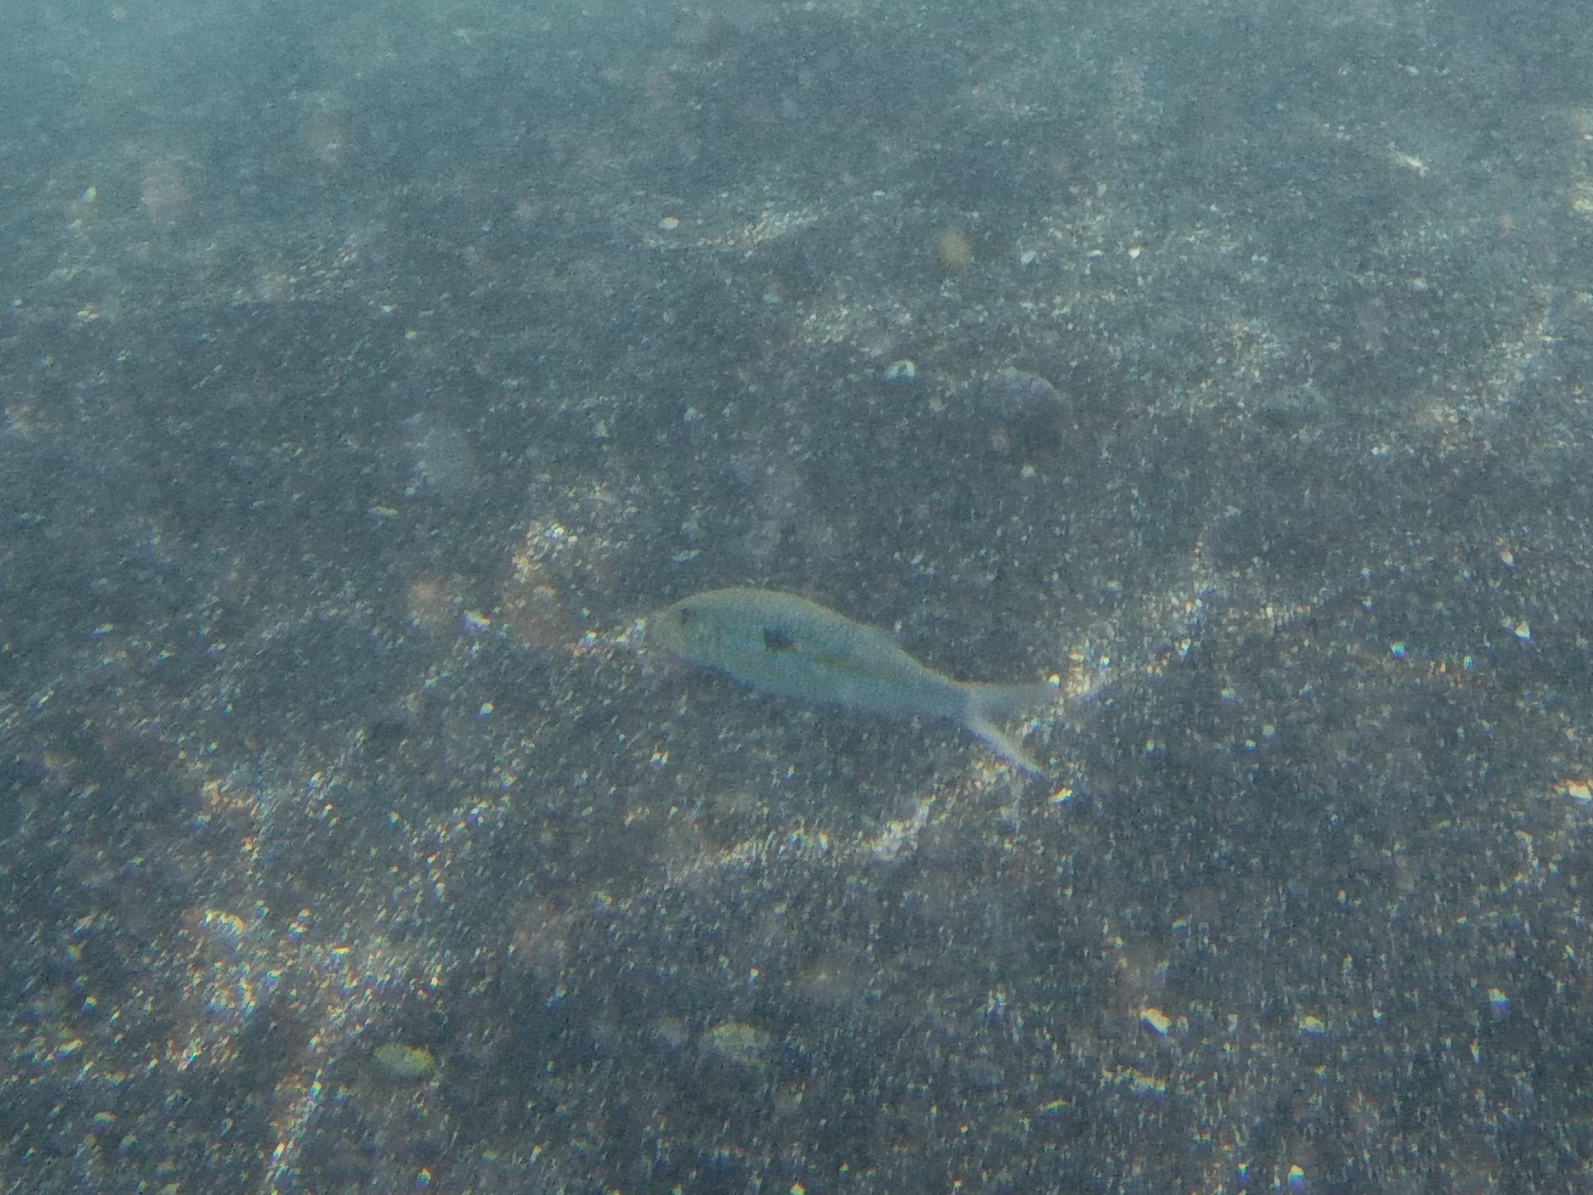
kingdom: Animalia
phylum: Chordata
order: Perciformes
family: Mullidae
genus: Mulloidichthys
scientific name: Mulloidichthys flavolineatus
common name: Yellowstripe goatfish
